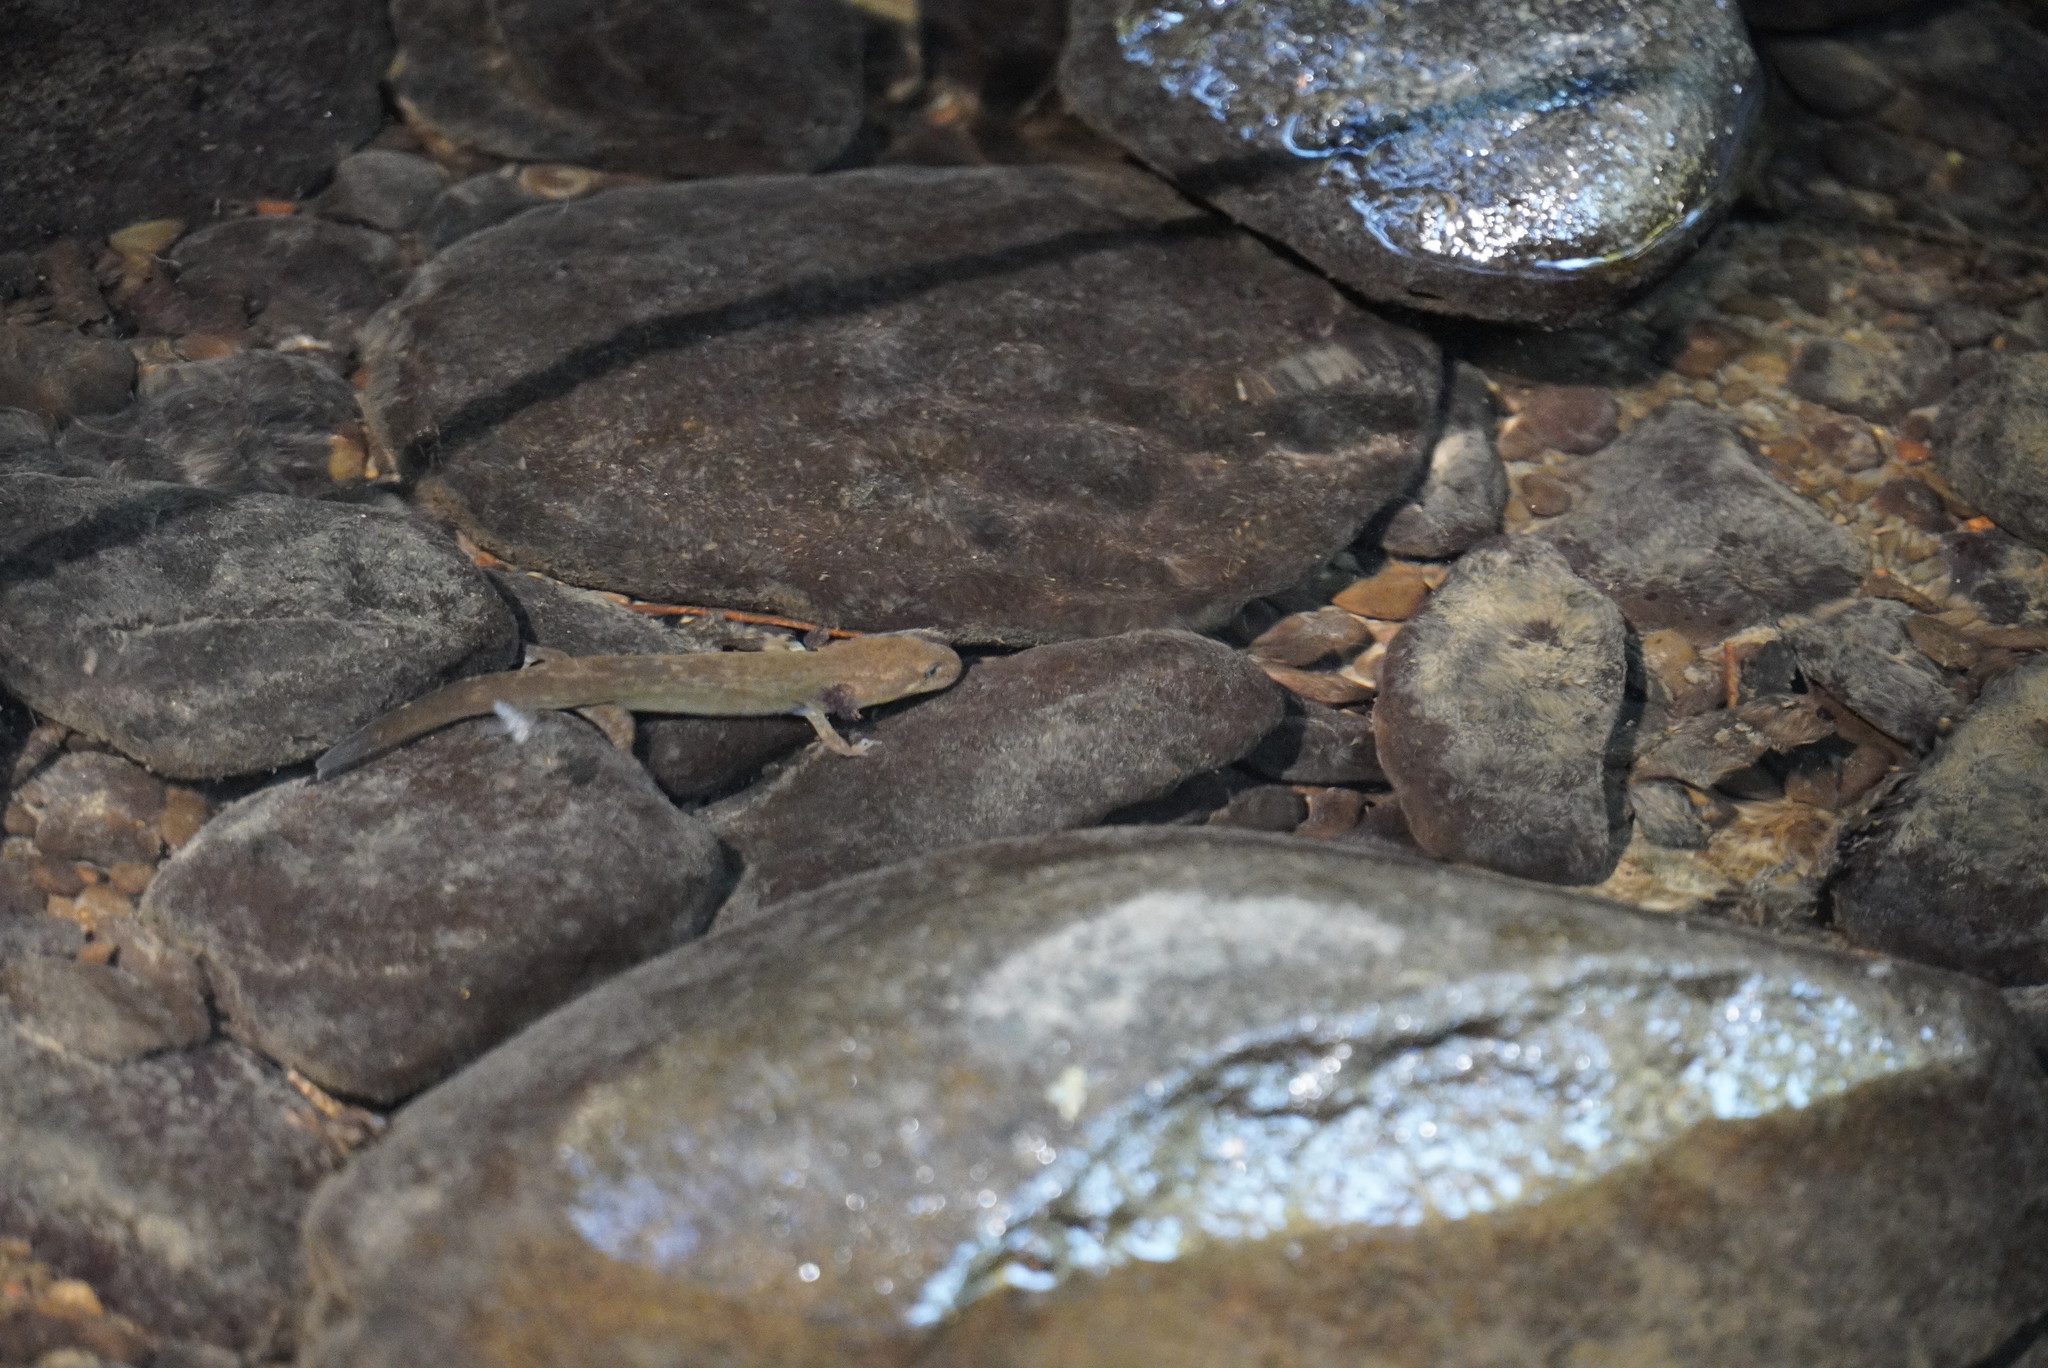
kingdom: Animalia
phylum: Chordata
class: Amphibia
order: Caudata
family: Ambystomatidae
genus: Dicamptodon
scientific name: Dicamptodon tenebrosus
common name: Coastal giant salamander
